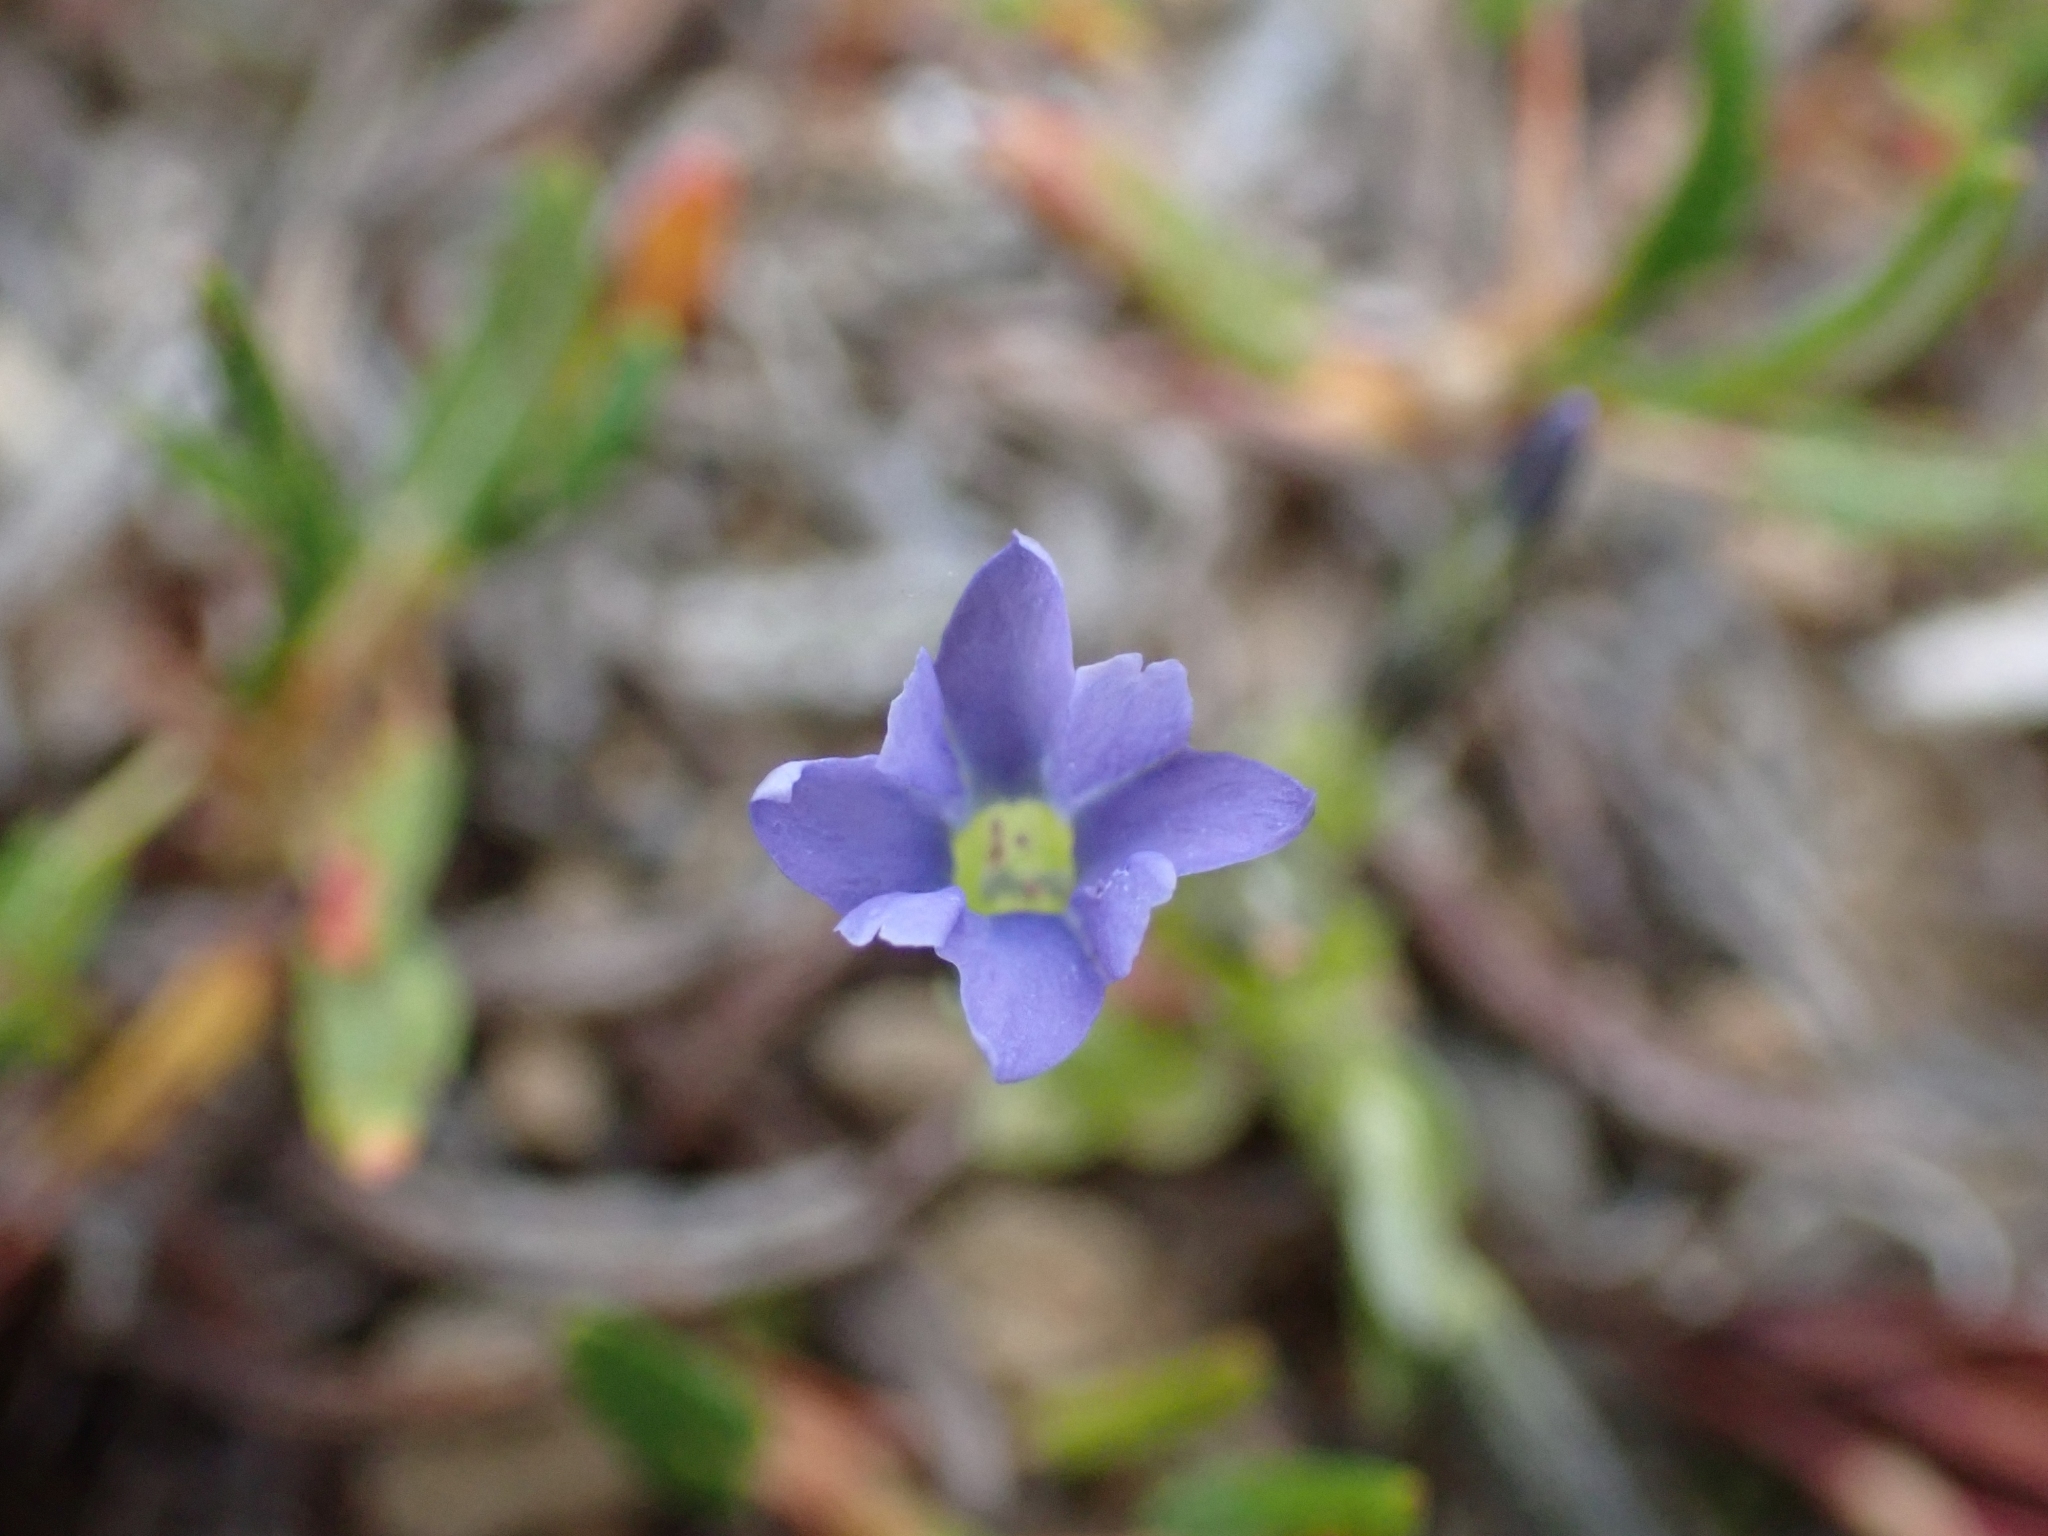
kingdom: Plantae
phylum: Tracheophyta
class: Magnoliopsida
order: Gentianales
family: Gentianaceae
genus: Gentiana
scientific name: Gentiana prostrata
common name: Moss gentian
